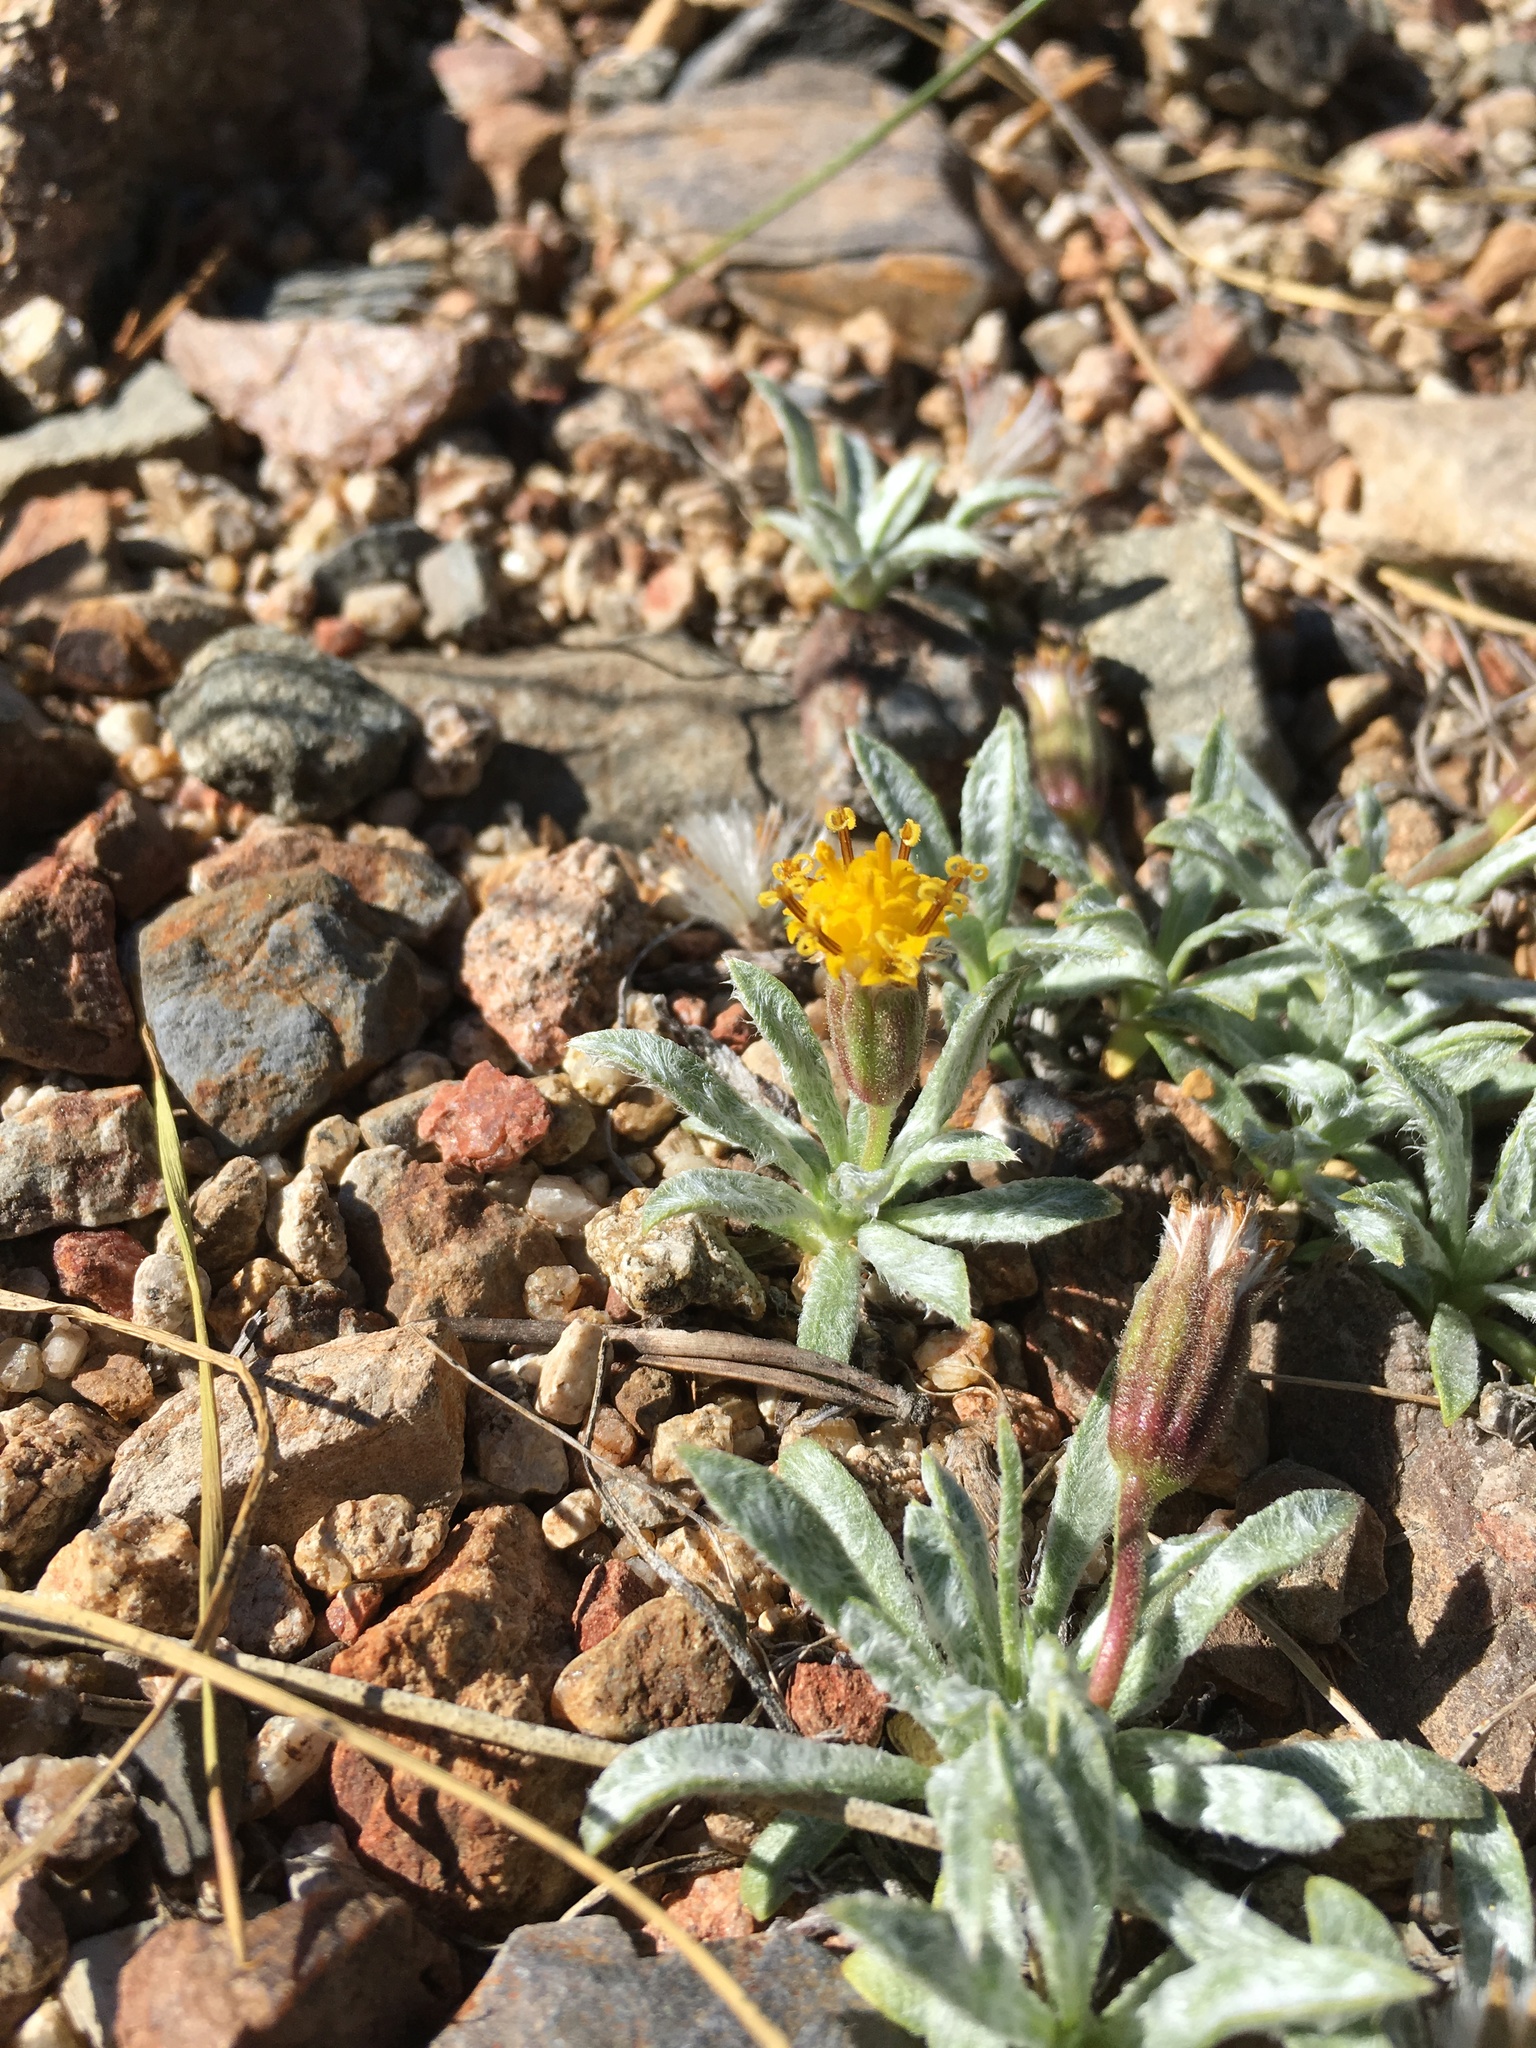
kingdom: Plantae
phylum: Tracheophyta
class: Magnoliopsida
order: Asterales
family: Asteraceae
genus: Raillardella
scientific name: Raillardella argentea
